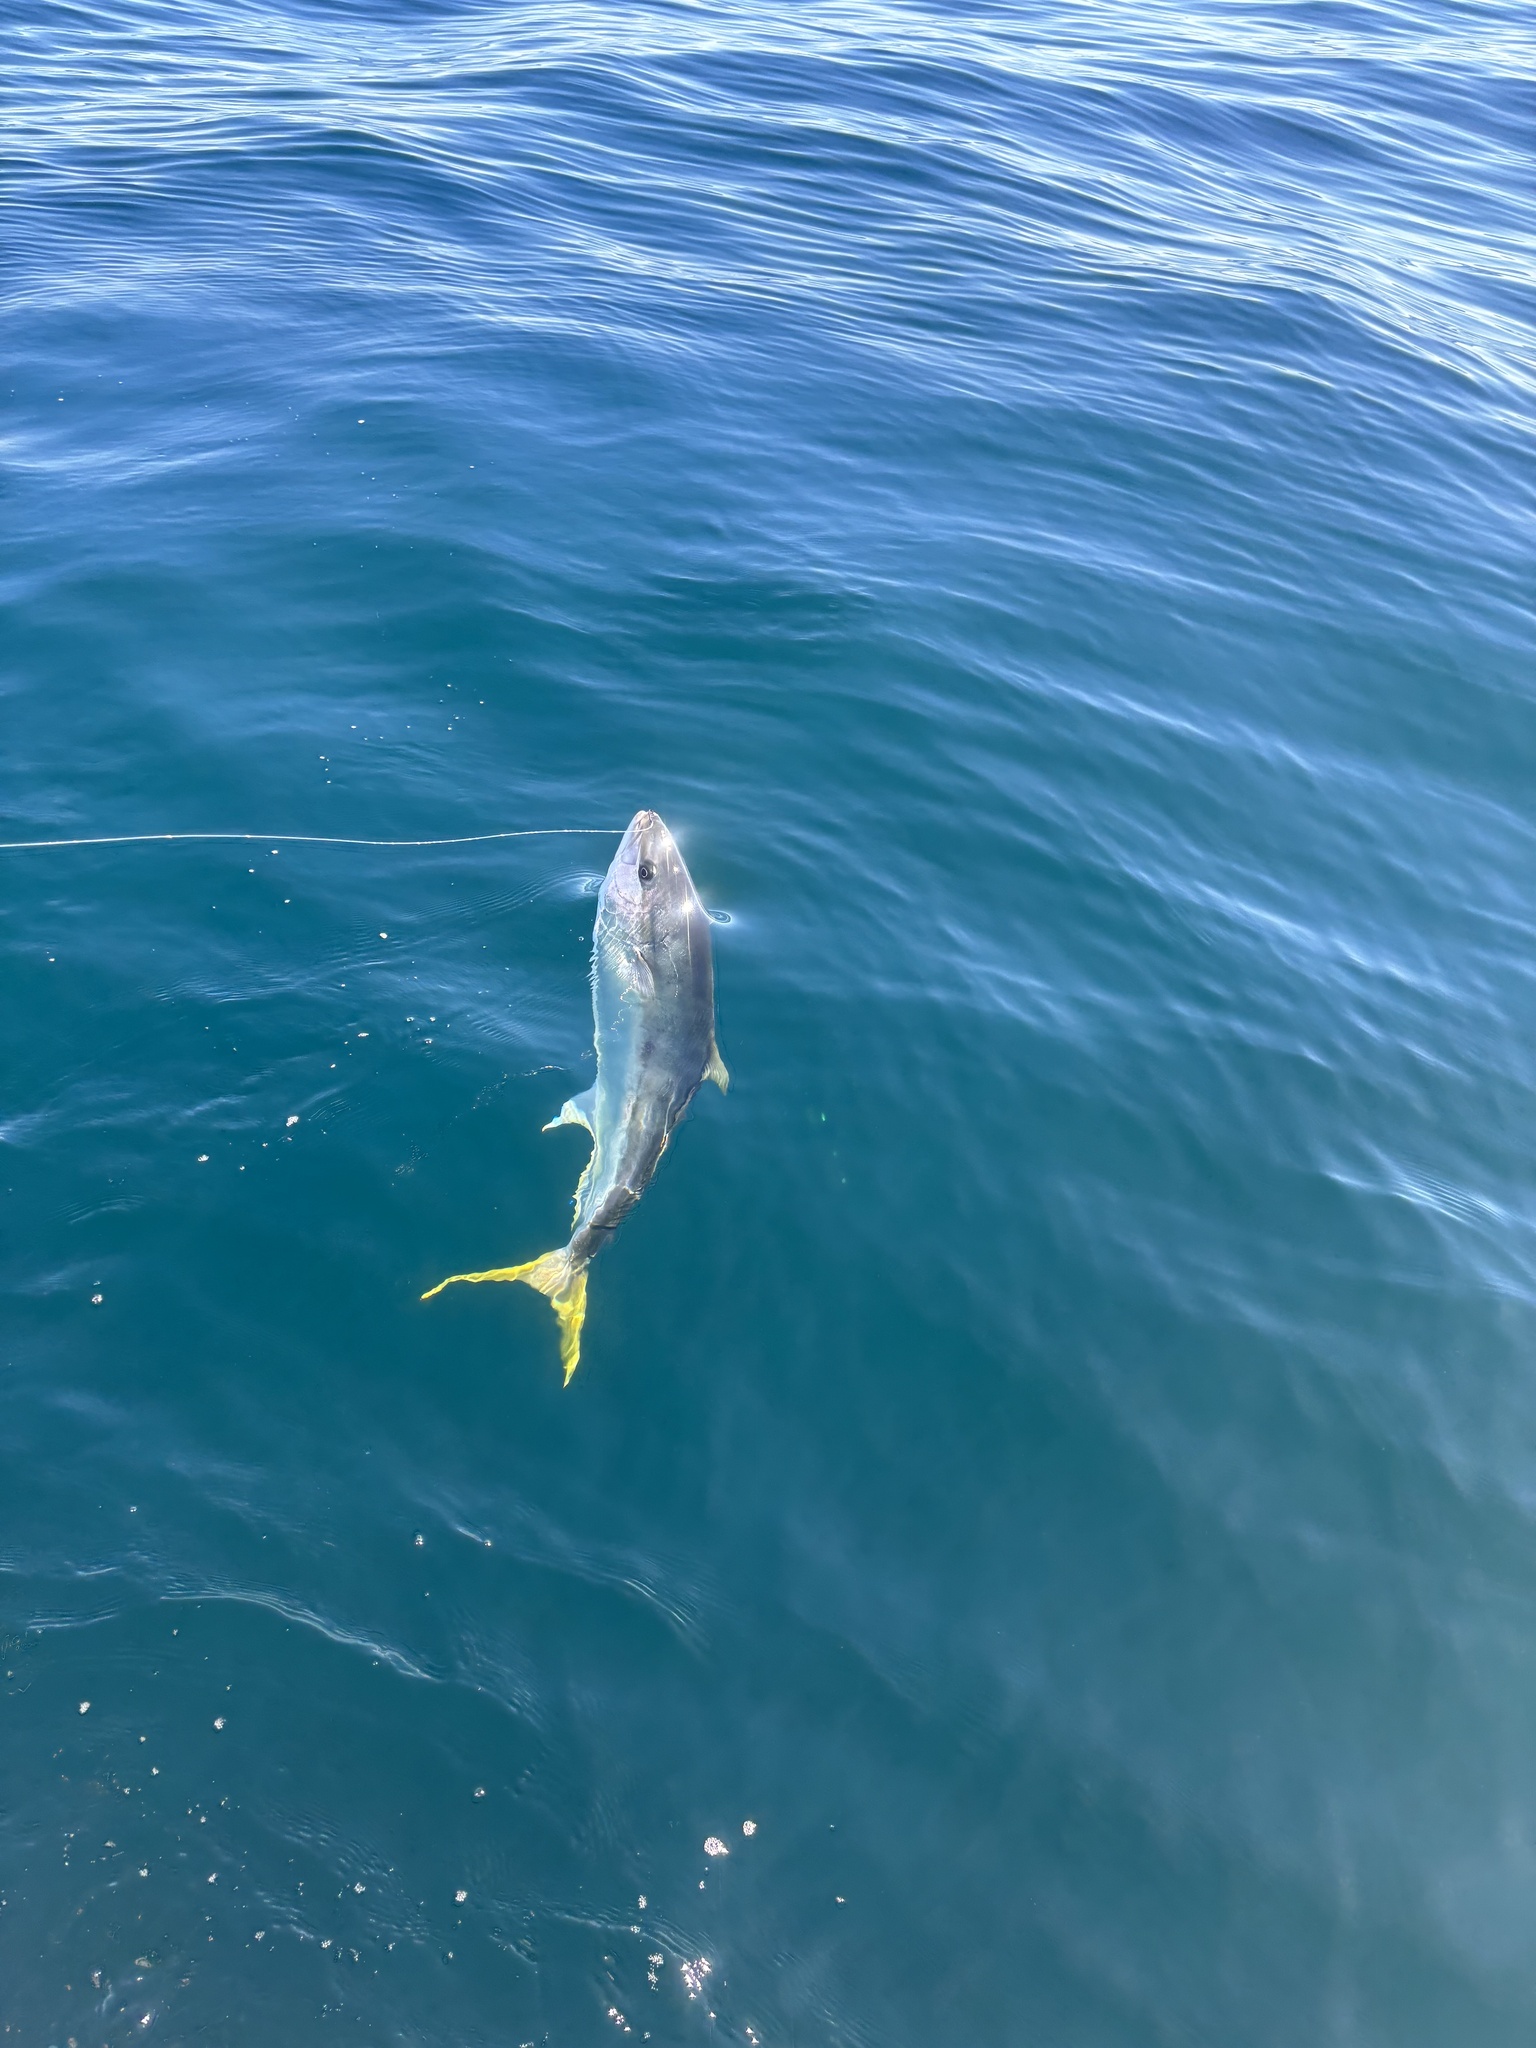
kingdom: Animalia
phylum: Chordata
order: Perciformes
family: Carangidae
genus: Seriola
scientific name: Seriola lalandi
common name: Yellowtail kingfish
